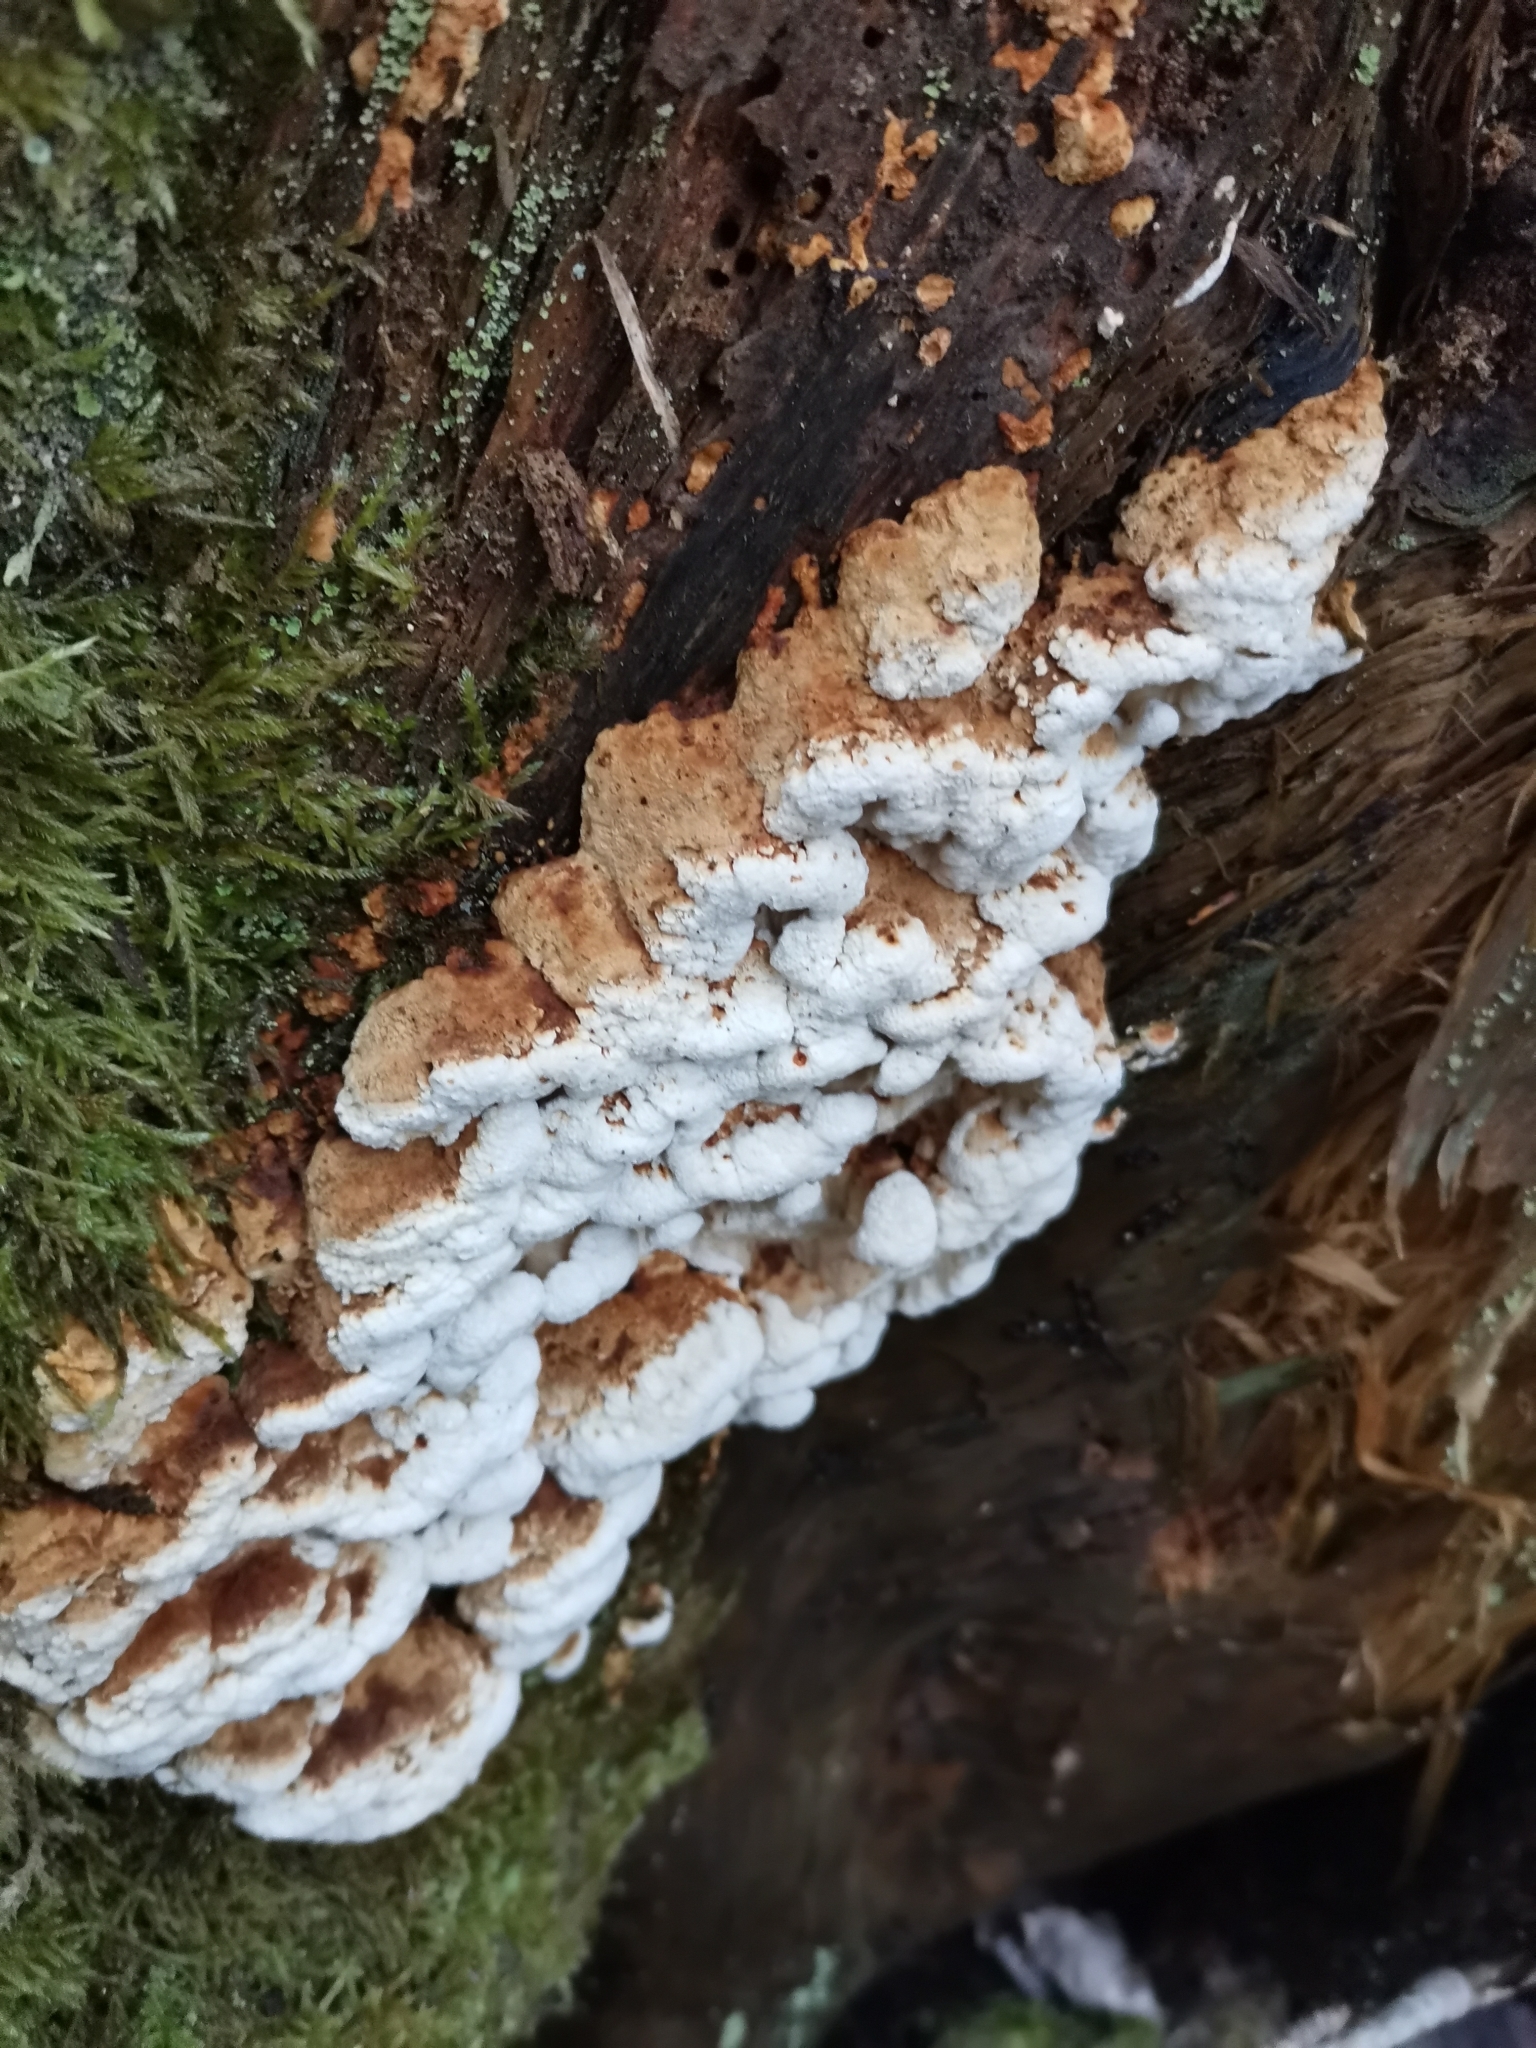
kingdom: Fungi
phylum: Basidiomycota
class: Agaricomycetes
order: Polyporales
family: Fomitopsidaceae
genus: Neoantrodia
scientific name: Neoantrodia serialis
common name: Serried porecrust
